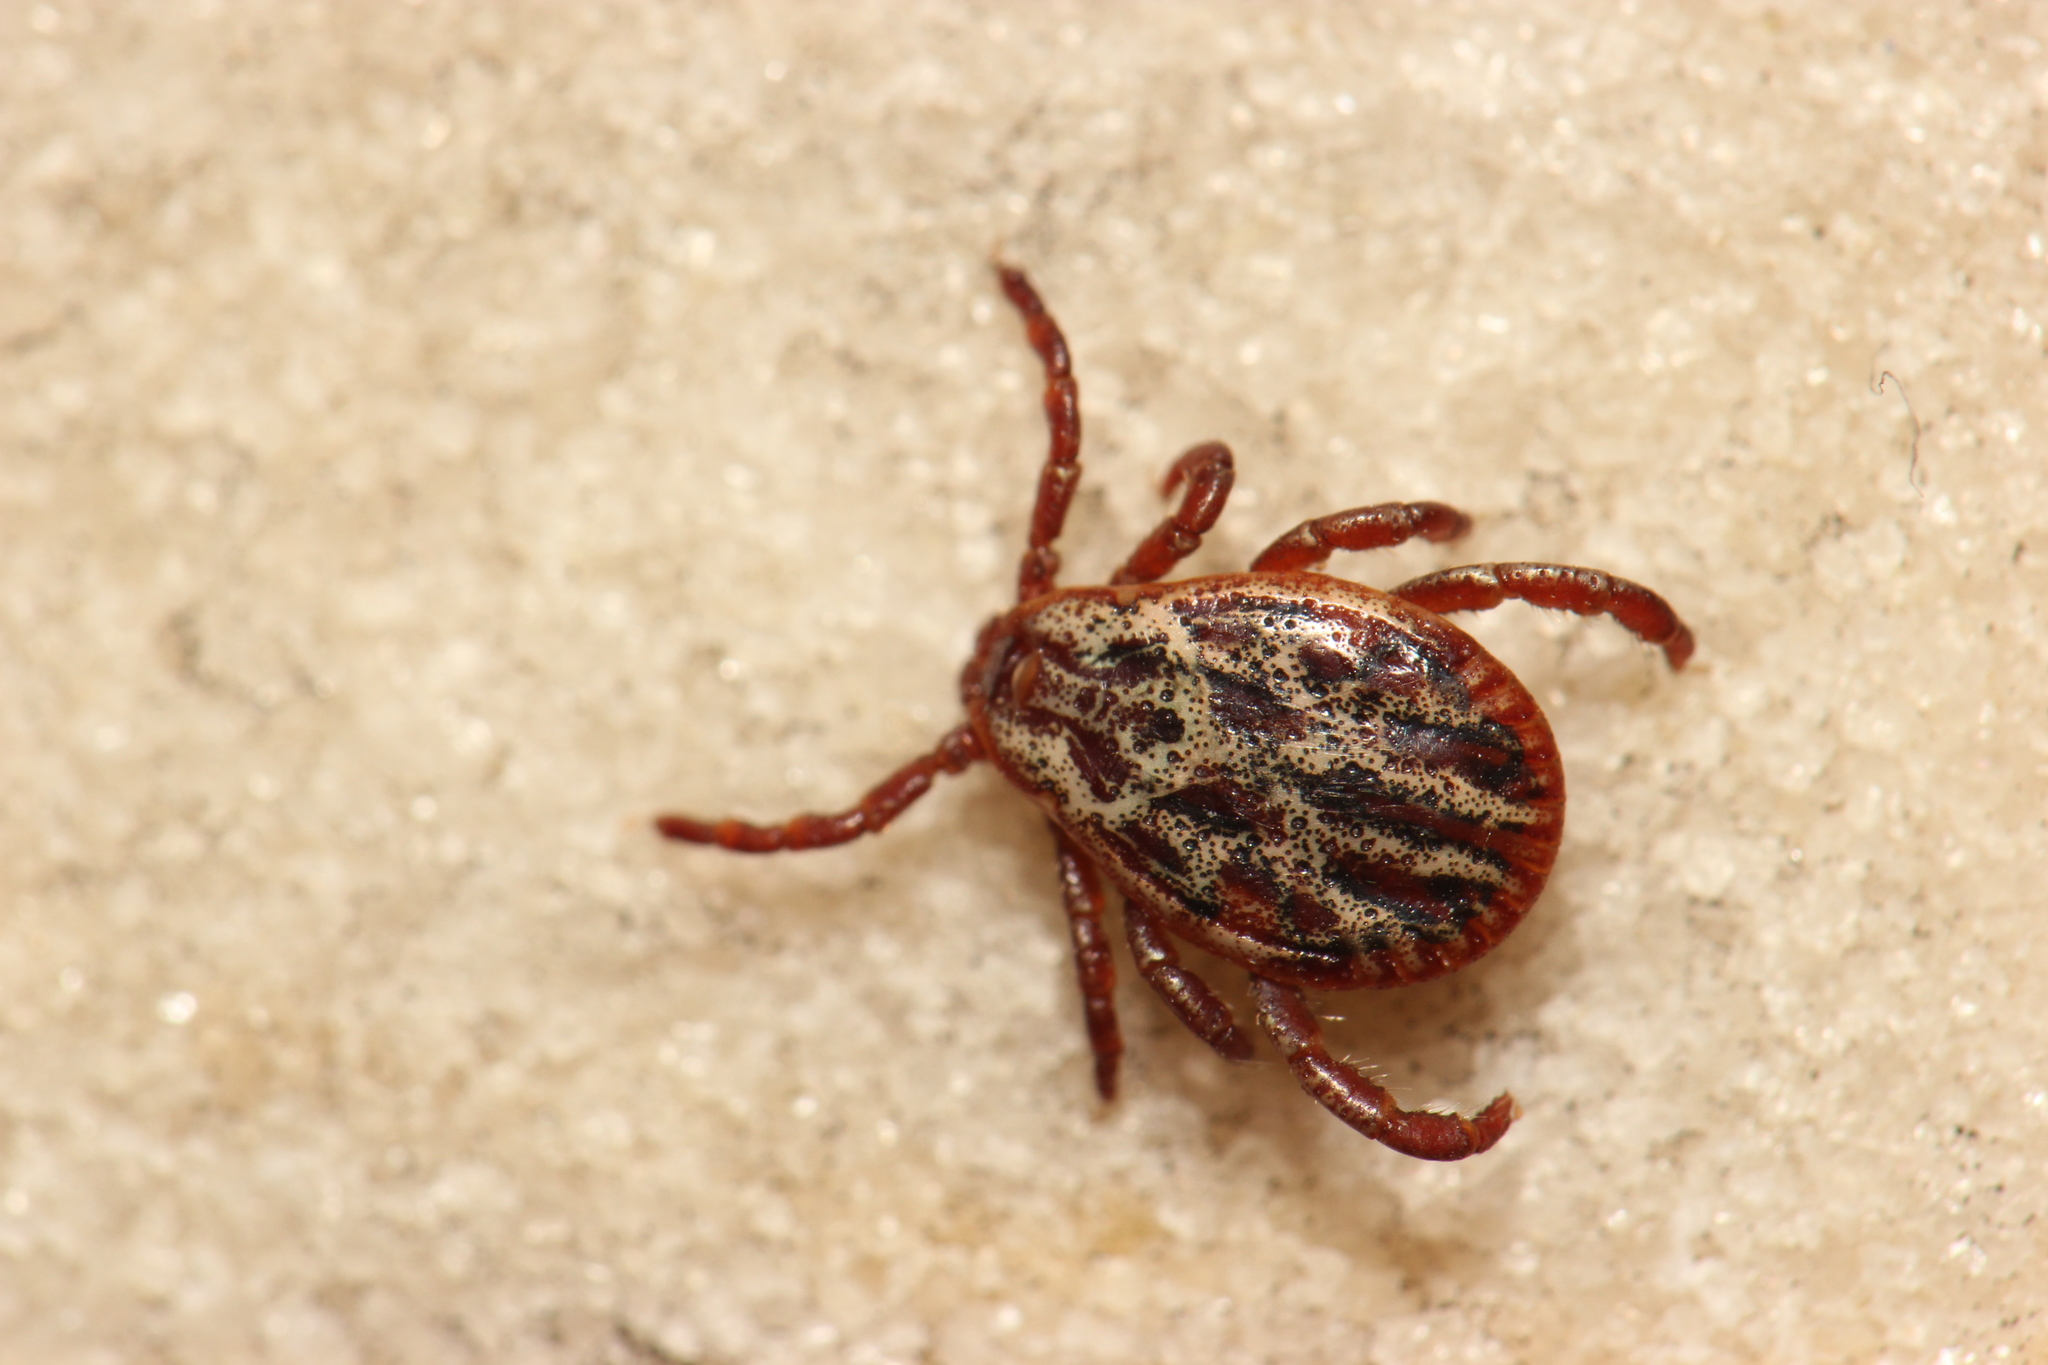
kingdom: Animalia
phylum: Arthropoda
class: Arachnida
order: Ixodida
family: Ixodidae
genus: Dermacentor
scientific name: Dermacentor reticulatus
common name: Ornate cow tick
